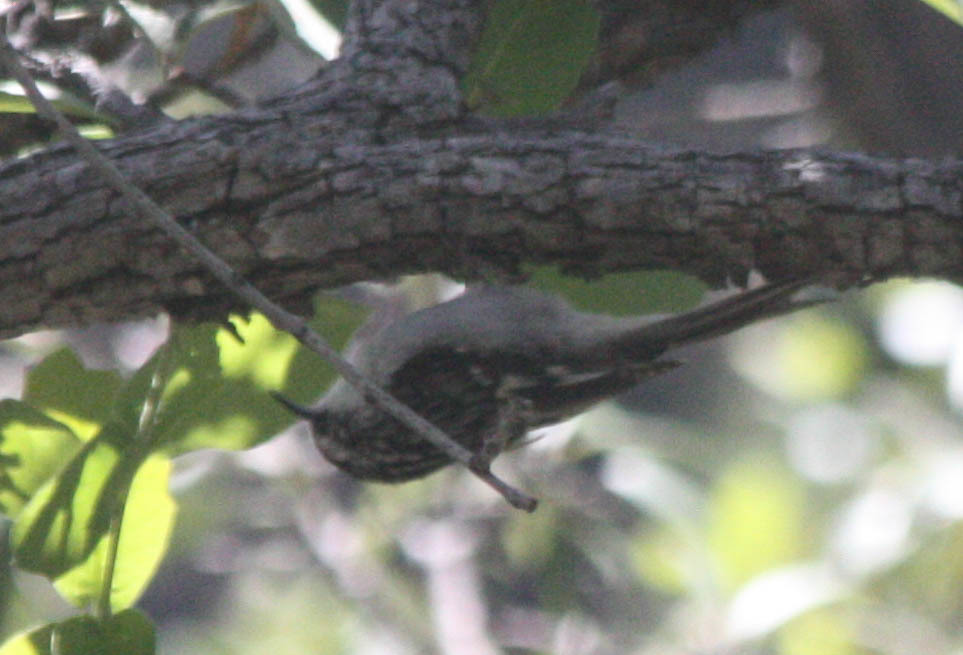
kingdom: Animalia
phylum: Chordata
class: Aves
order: Passeriformes
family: Certhiidae
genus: Certhia
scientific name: Certhia americana
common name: Brown creeper
